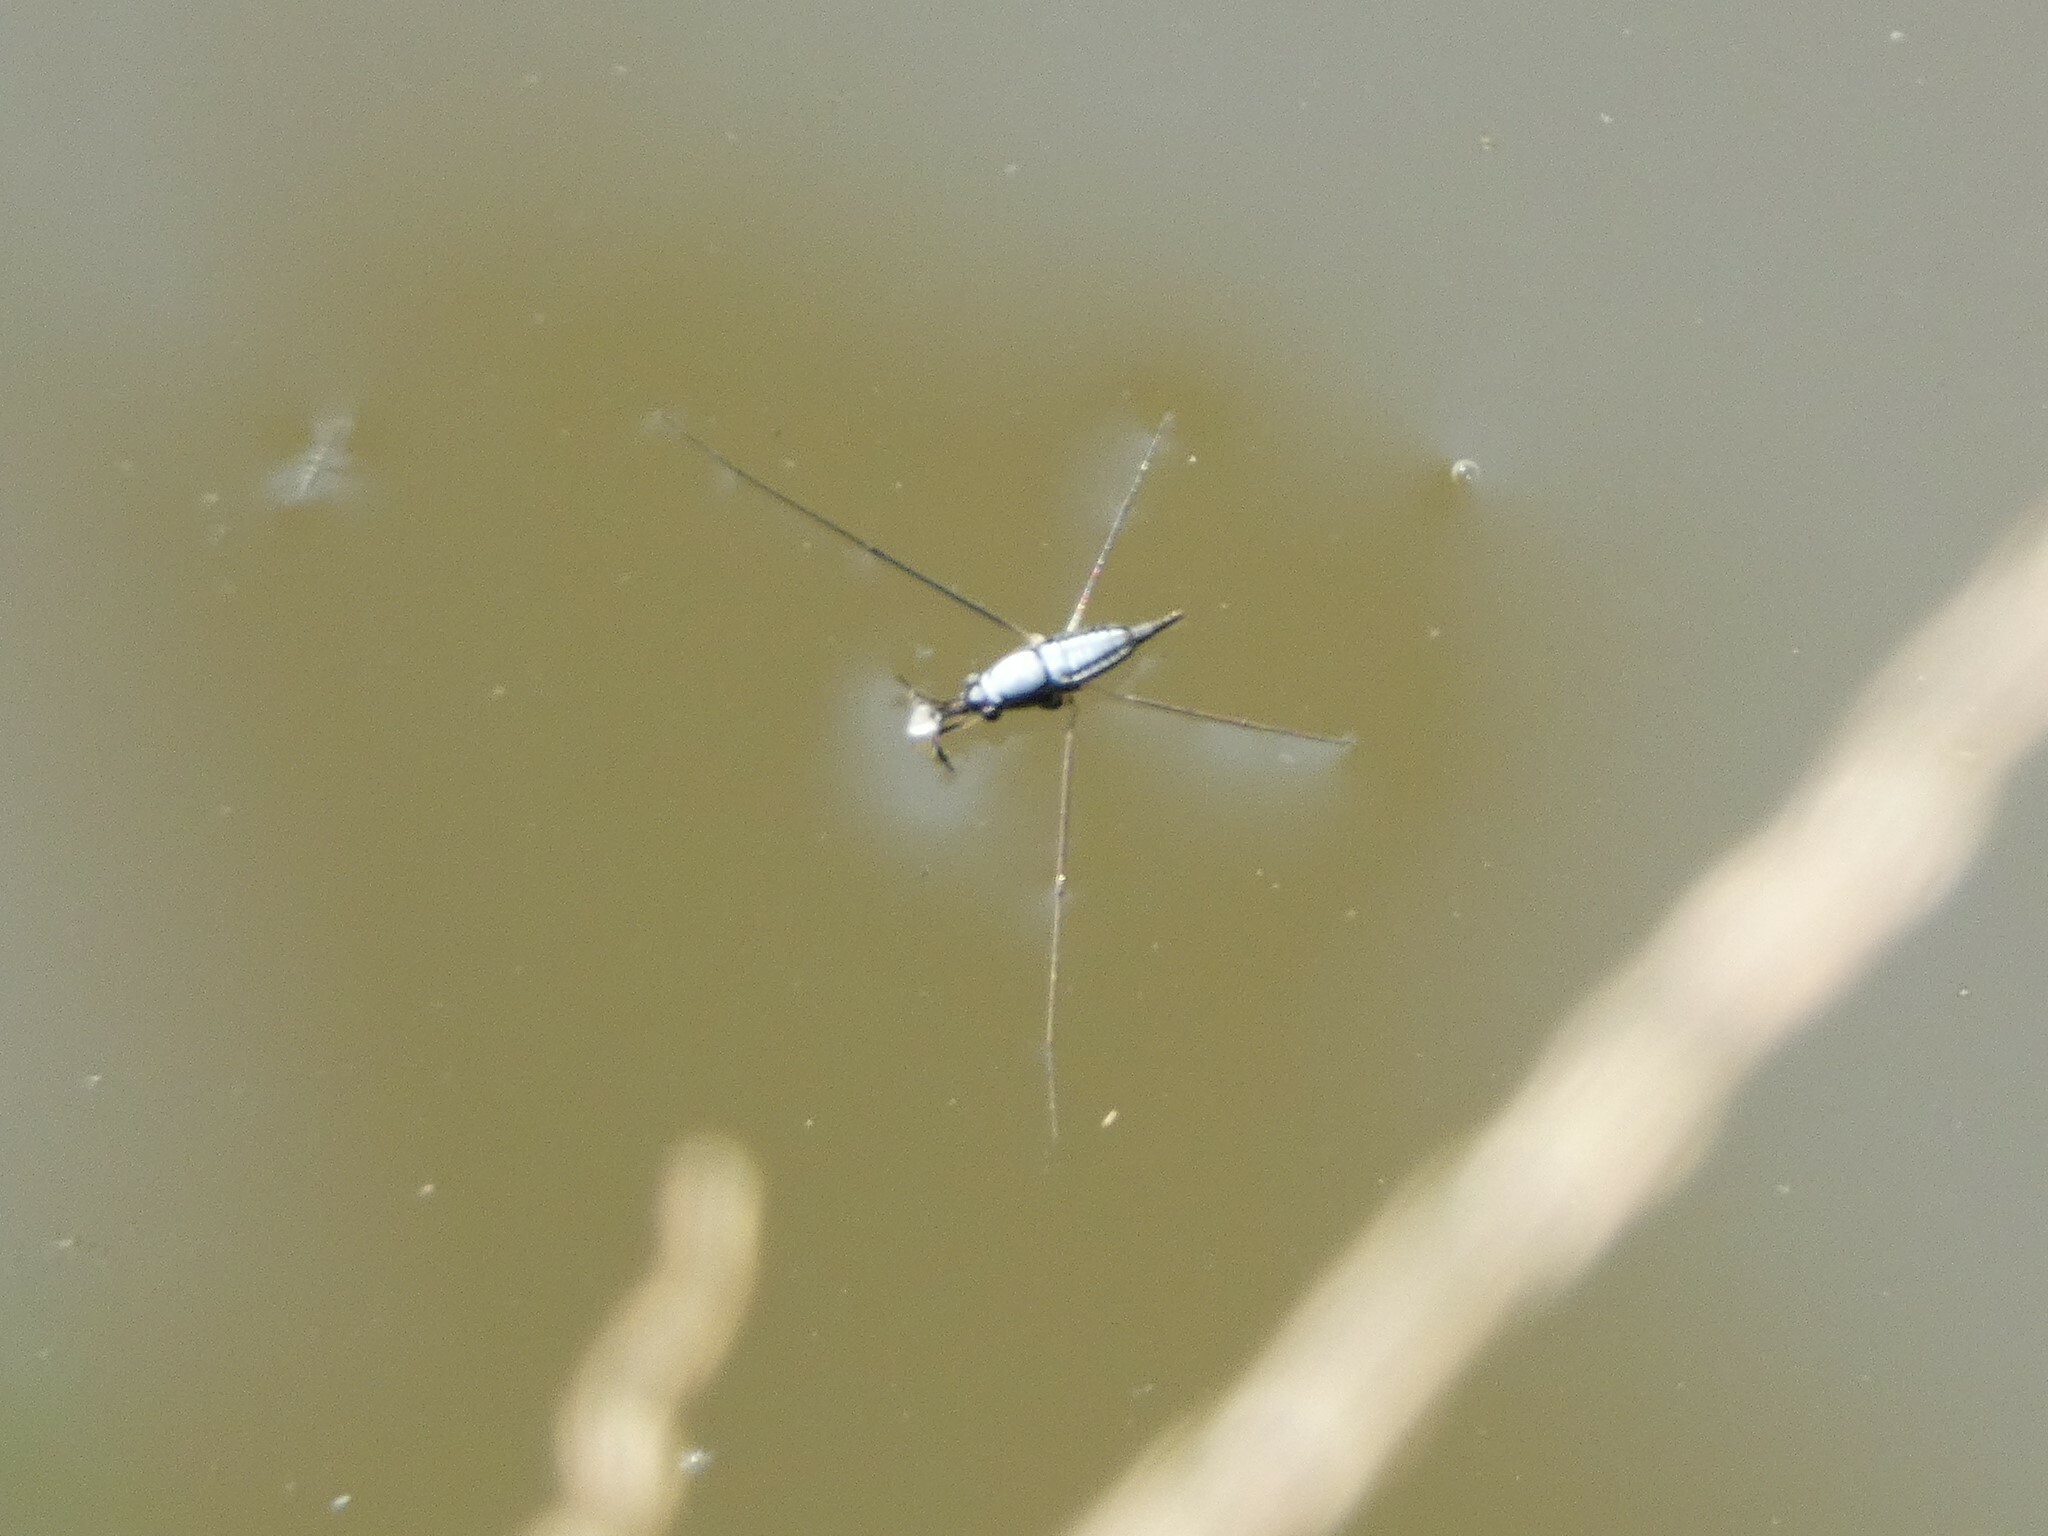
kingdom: Animalia
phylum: Arthropoda
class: Insecta
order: Hemiptera
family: Gerridae
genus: Rhagadotarsus
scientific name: Rhagadotarsus kraepelini
